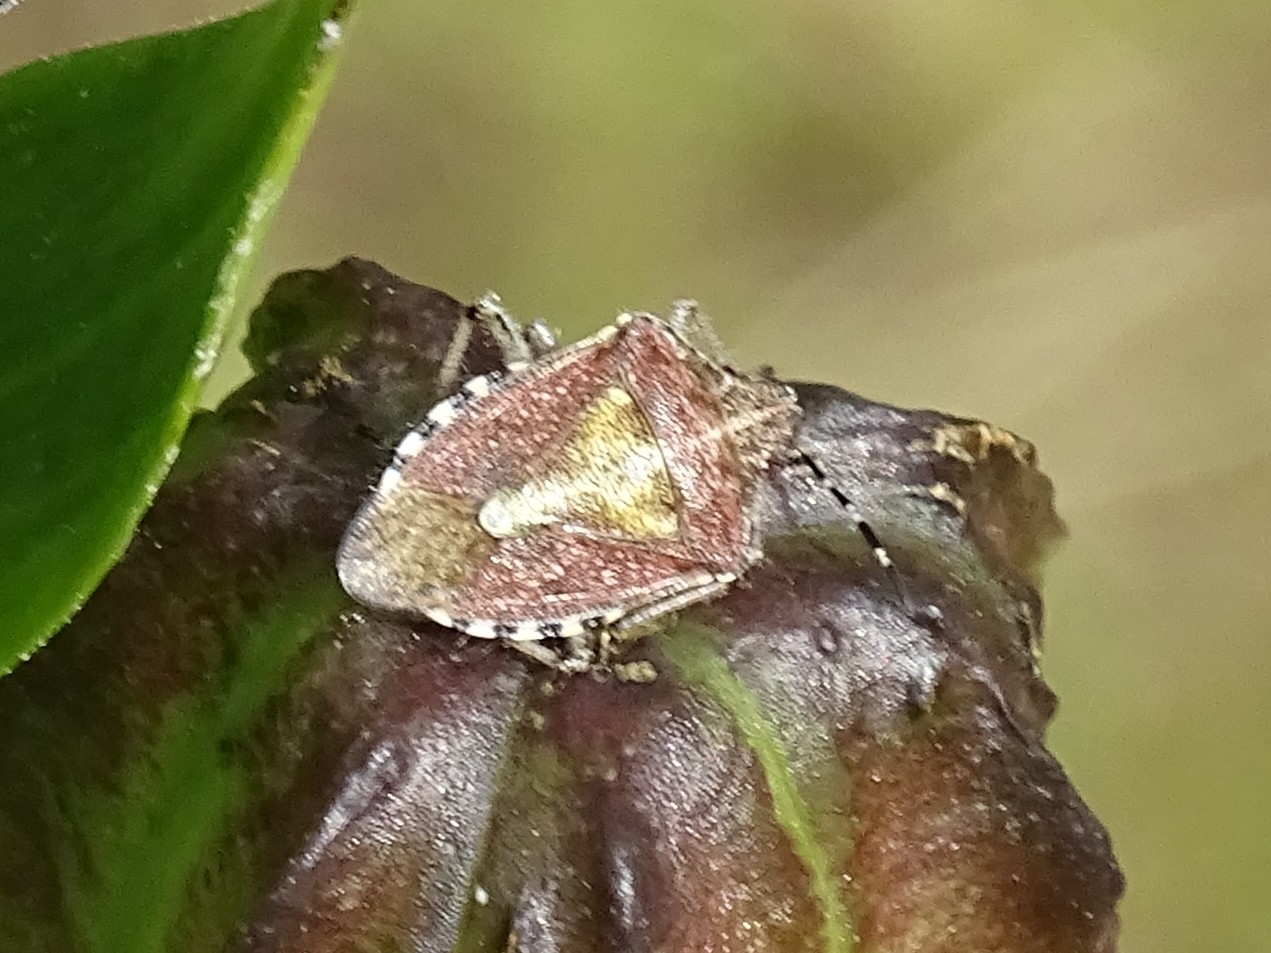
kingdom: Animalia
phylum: Arthropoda
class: Insecta
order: Hemiptera
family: Pentatomidae
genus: Dolycoris
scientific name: Dolycoris baccarum
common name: Sloe bug
